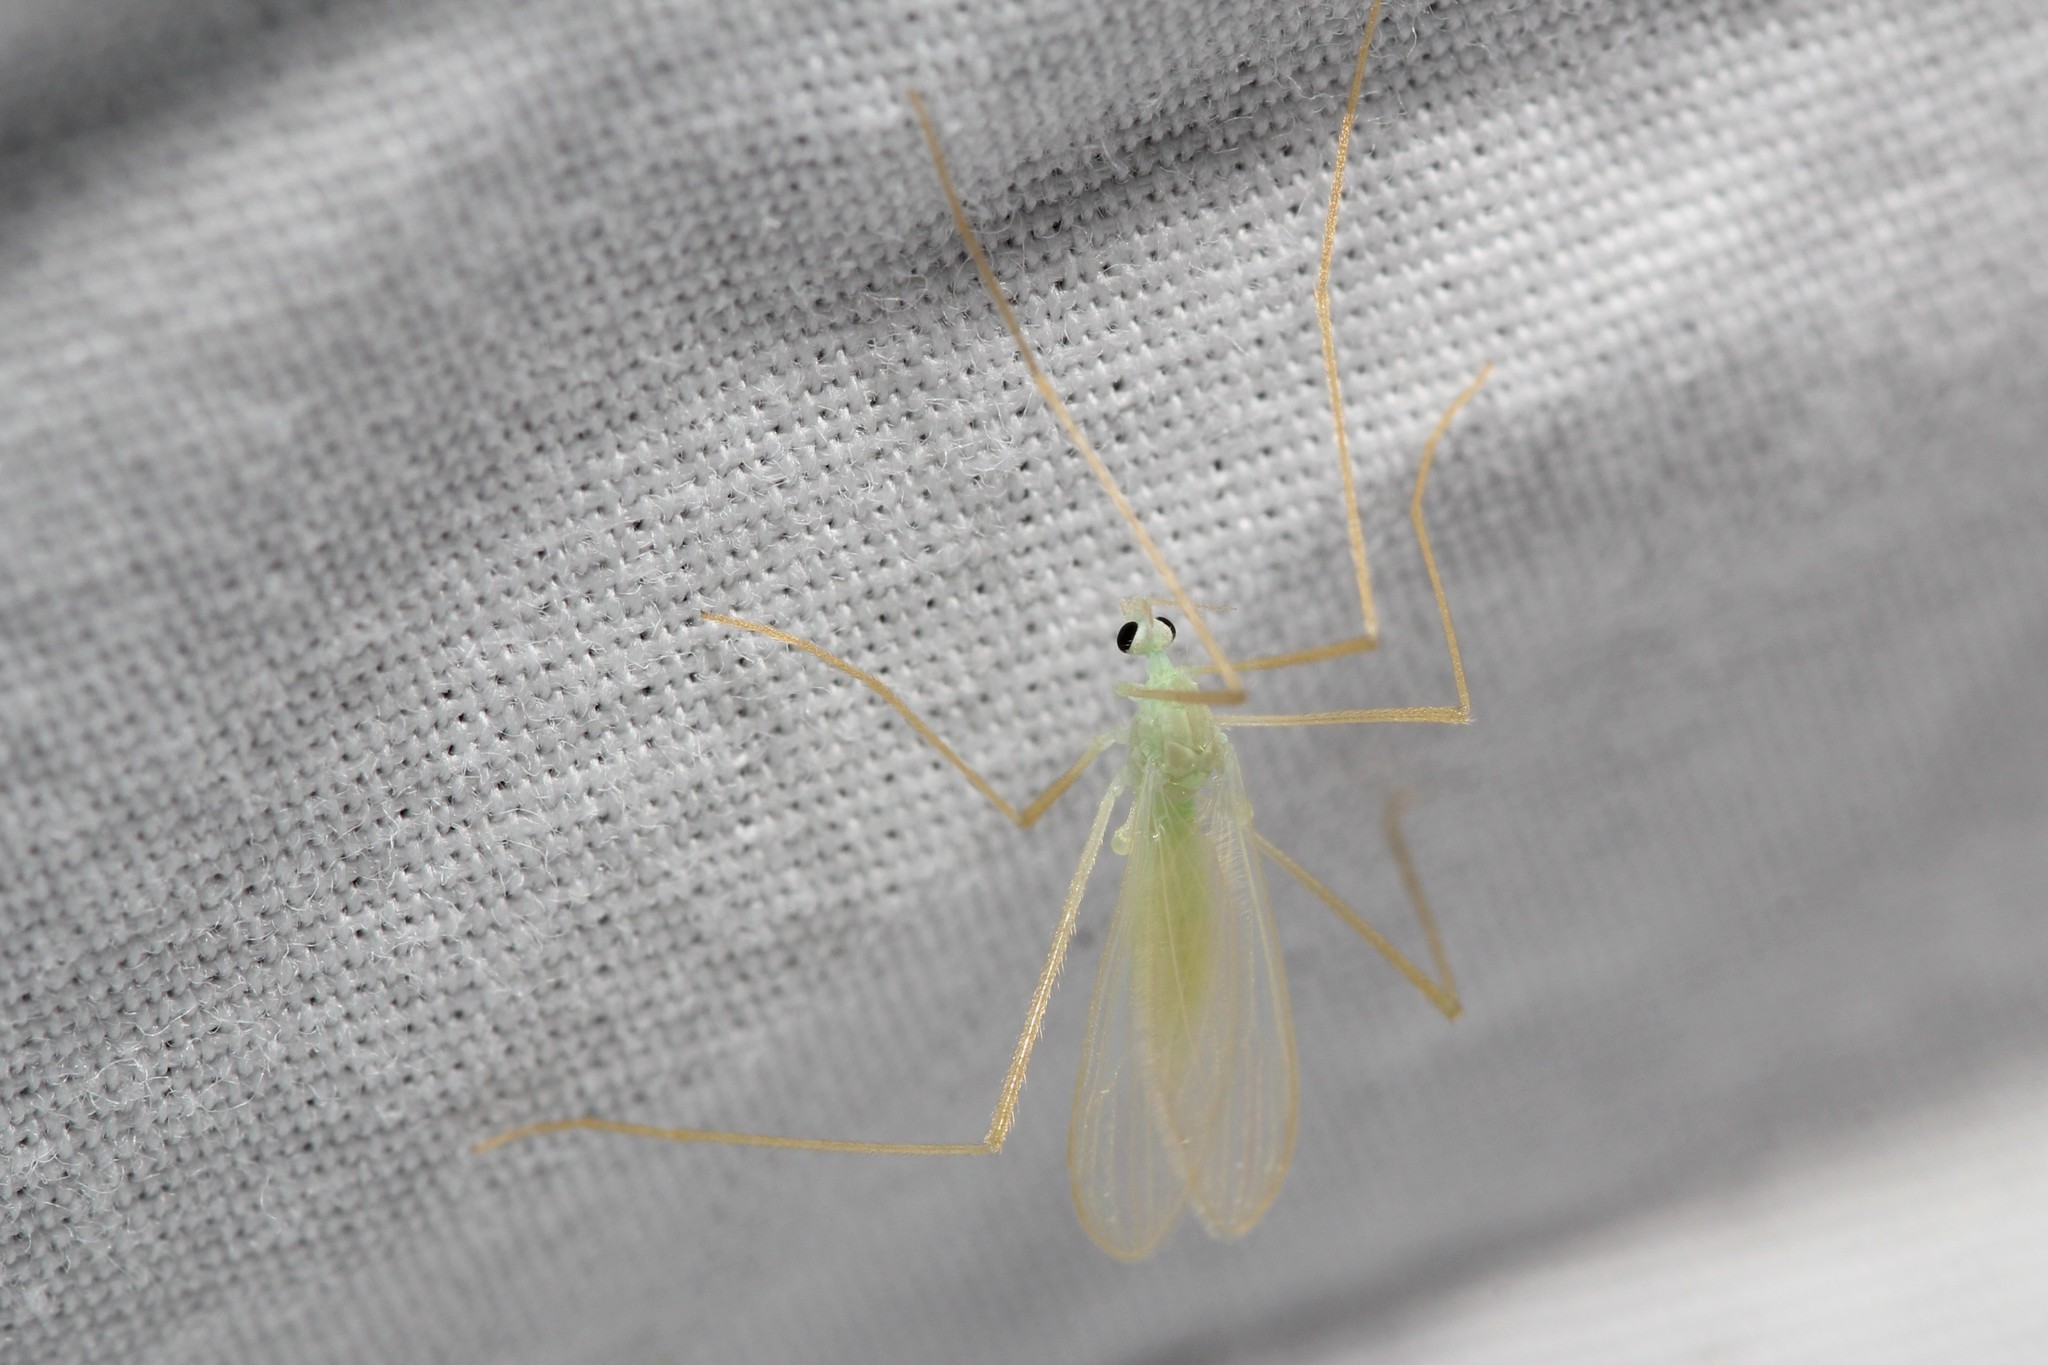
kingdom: Animalia
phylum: Arthropoda
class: Insecta
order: Diptera
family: Limoniidae
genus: Erioptera
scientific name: Erioptera
